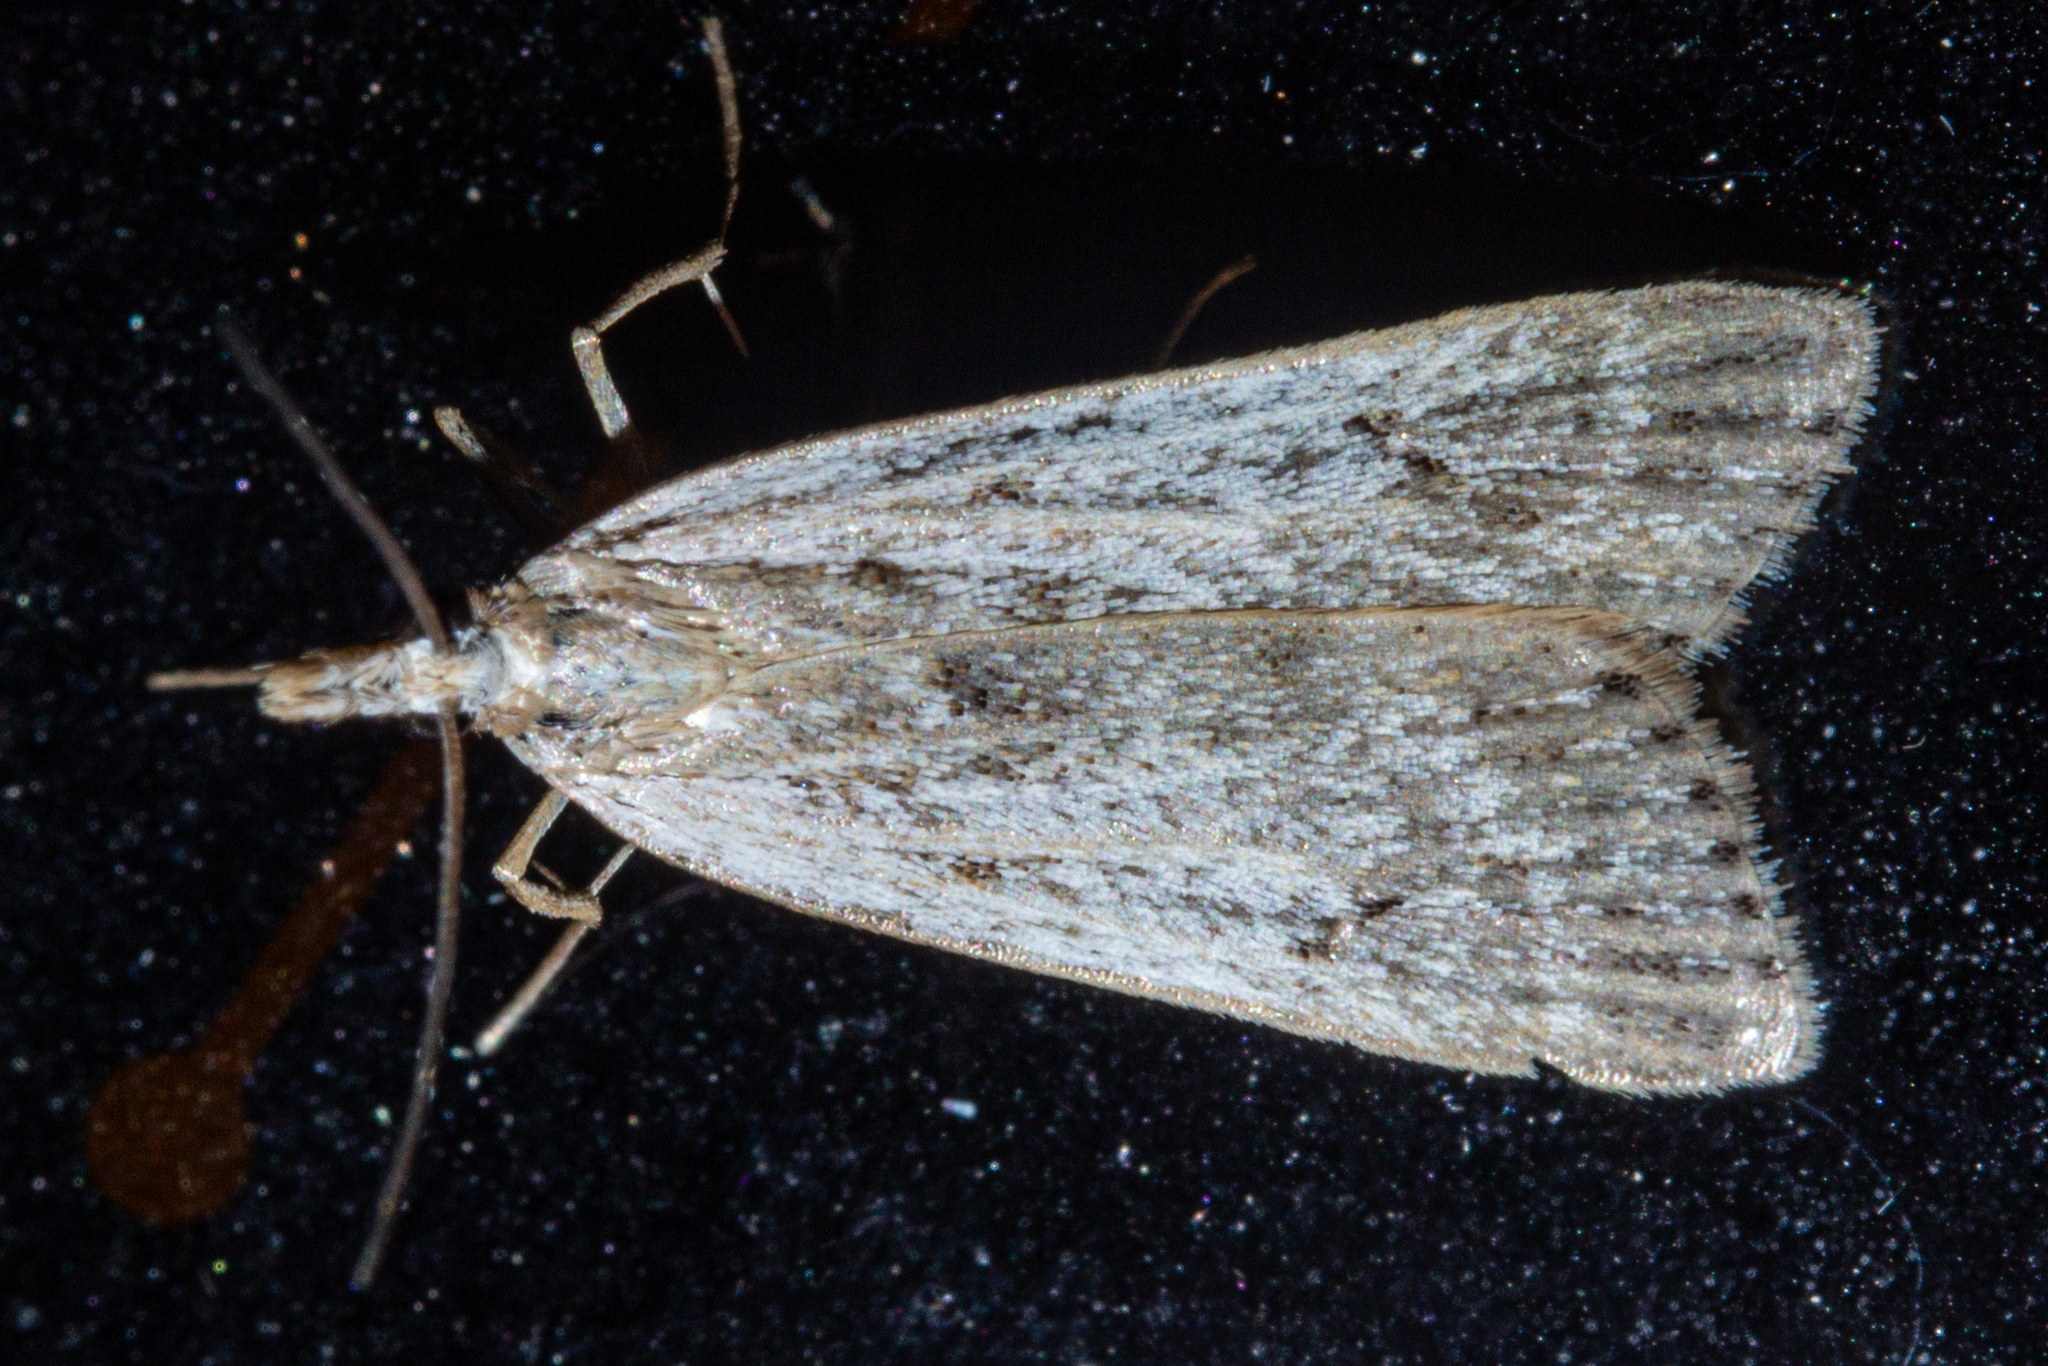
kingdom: Animalia
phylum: Arthropoda
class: Insecta
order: Lepidoptera
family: Crambidae
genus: Eudonia
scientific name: Eudonia deltophora
